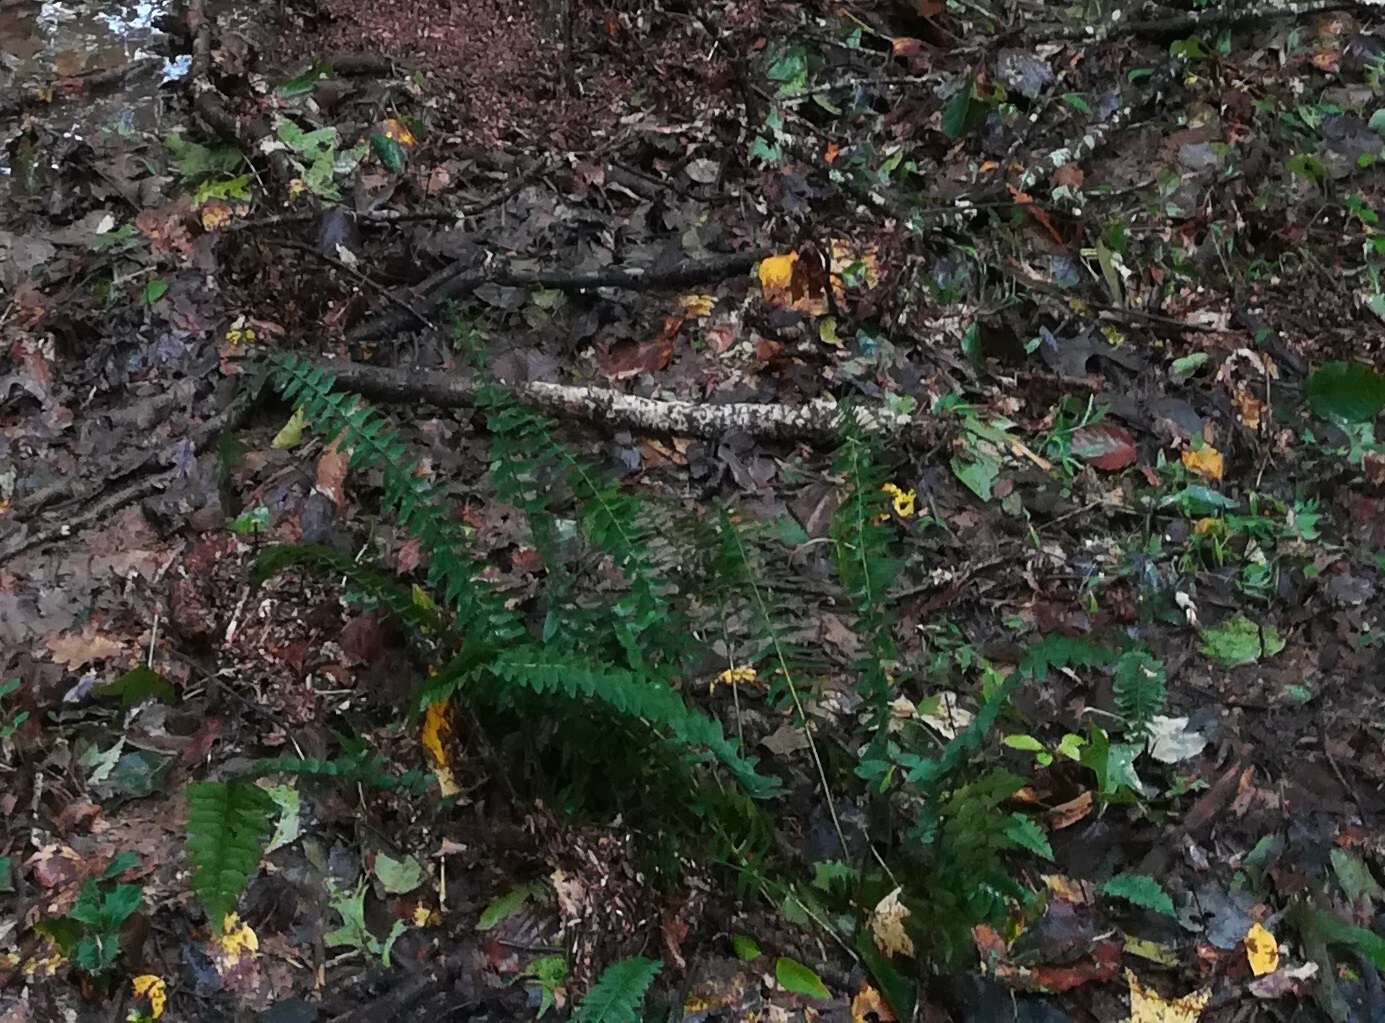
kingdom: Plantae
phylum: Tracheophyta
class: Polypodiopsida
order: Polypodiales
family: Dryopteridaceae
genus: Polystichum
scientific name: Polystichum acrostichoides
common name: Christmas fern
